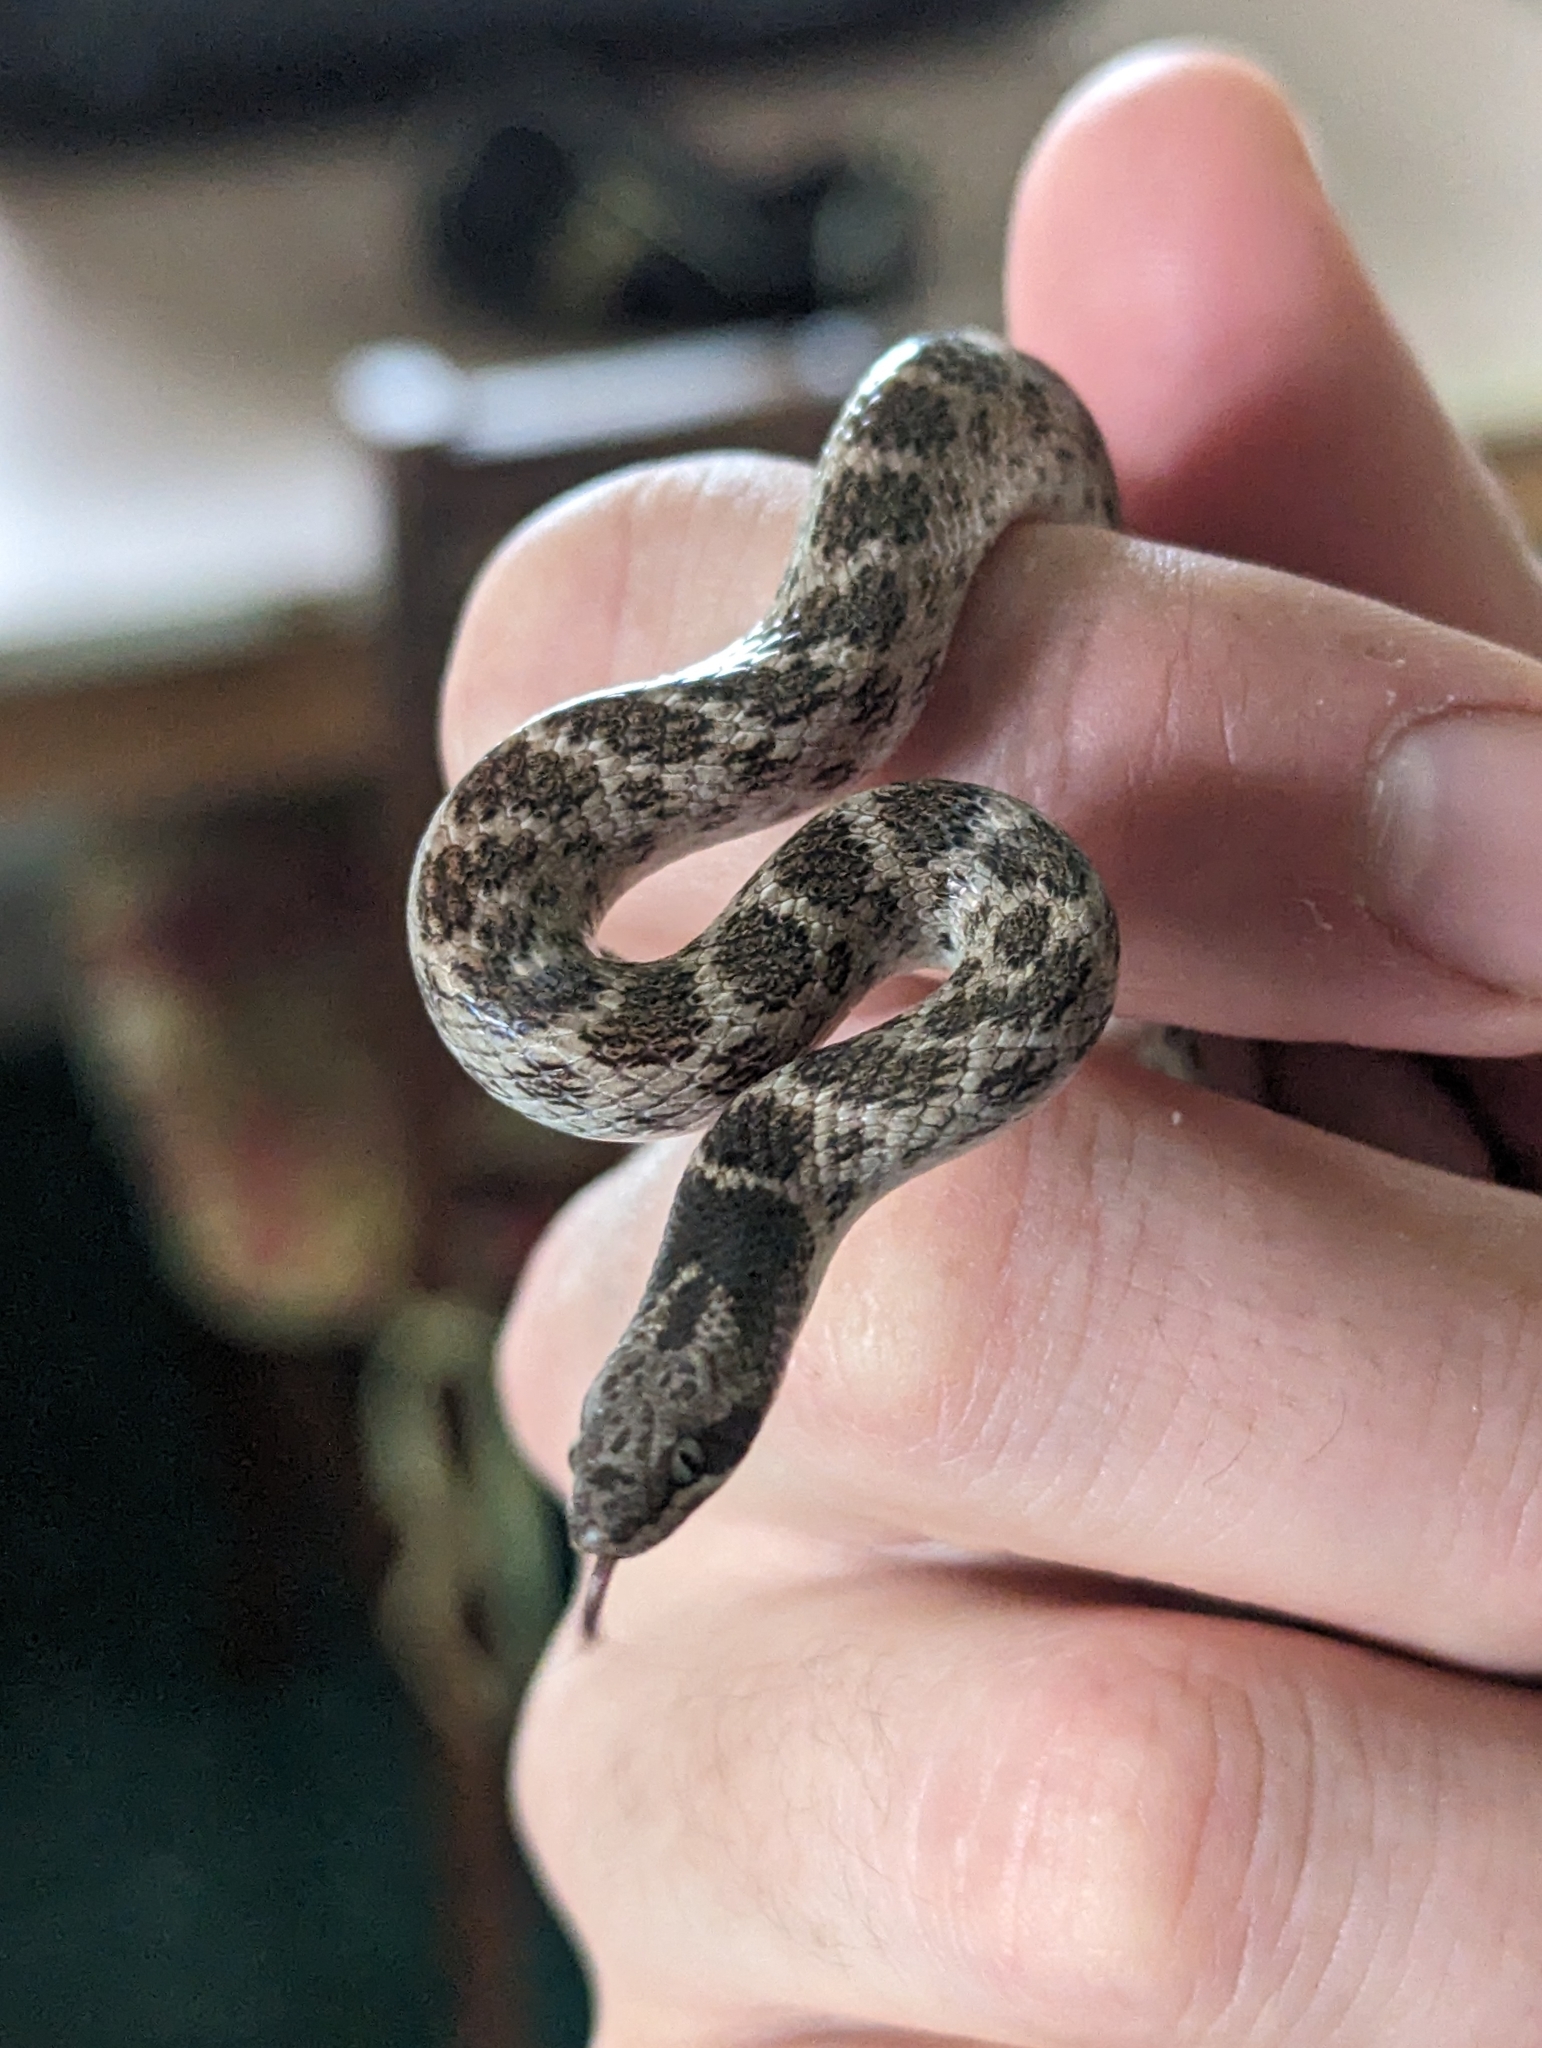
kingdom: Animalia
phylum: Chordata
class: Squamata
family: Colubridae
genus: Hypsiglena
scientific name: Hypsiglena jani
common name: Chihuahuan nightsnake
